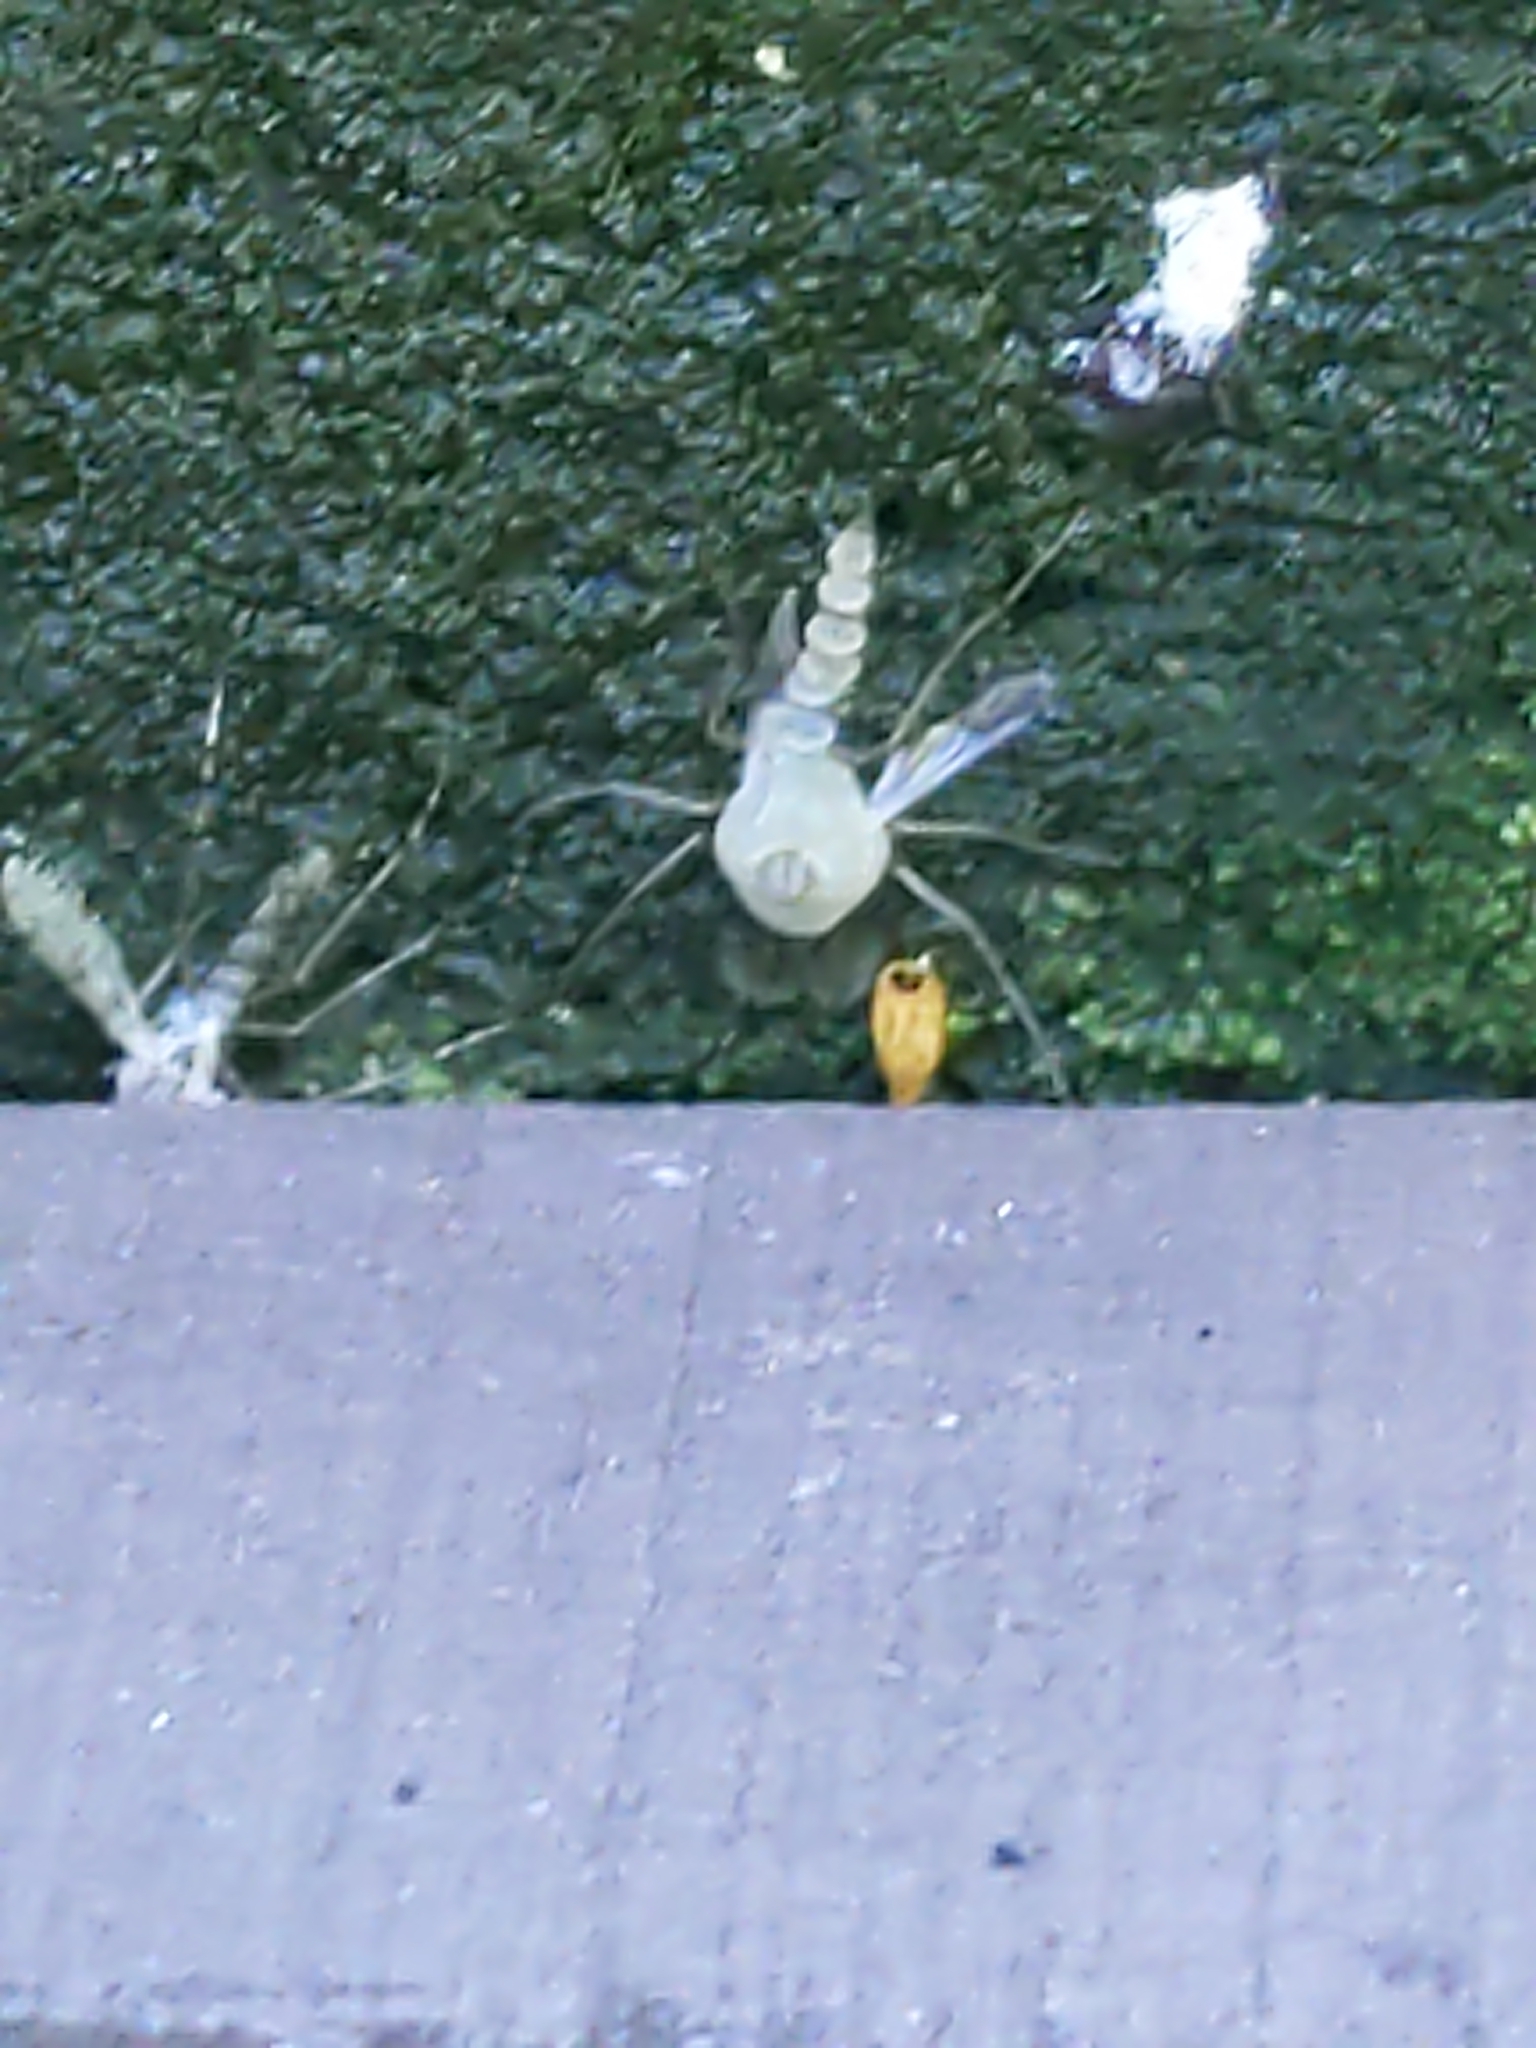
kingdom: Fungi
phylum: Entomophthoromycota
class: Entomophthoromycetes
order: Entomophthorales
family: Entomophthoraceae
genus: Erynia
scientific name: Erynia sepulchralis
